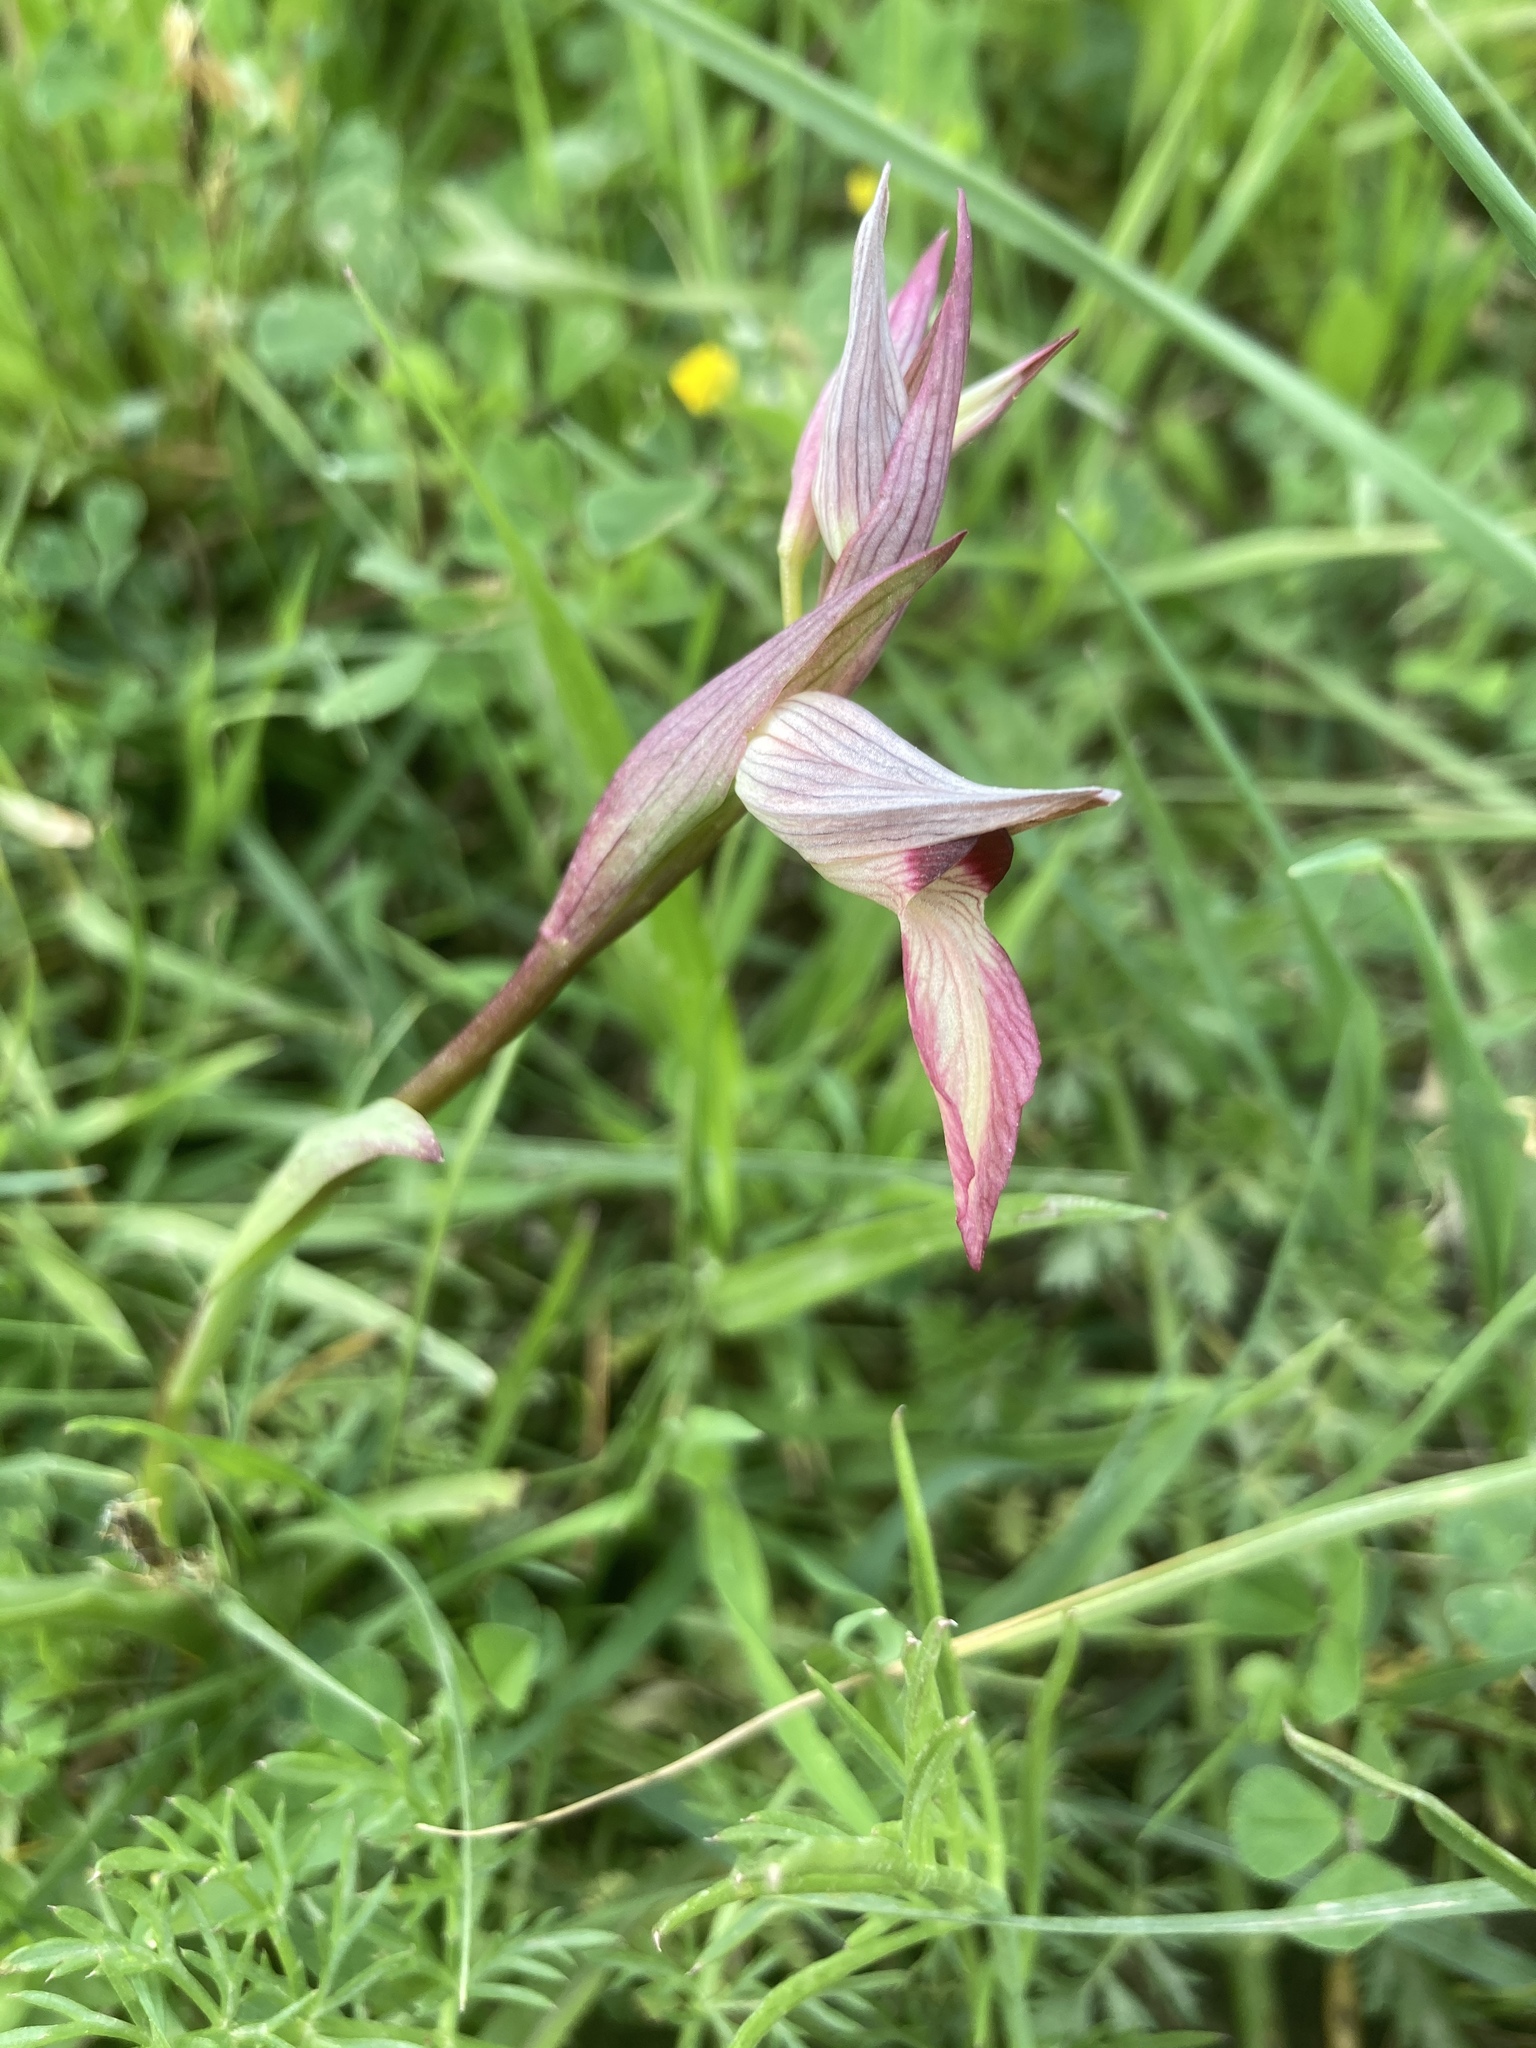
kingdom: Plantae
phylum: Tracheophyta
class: Liliopsida
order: Asparagales
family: Orchidaceae
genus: Serapias
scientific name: Serapias lingua
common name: Tongue-orchid
